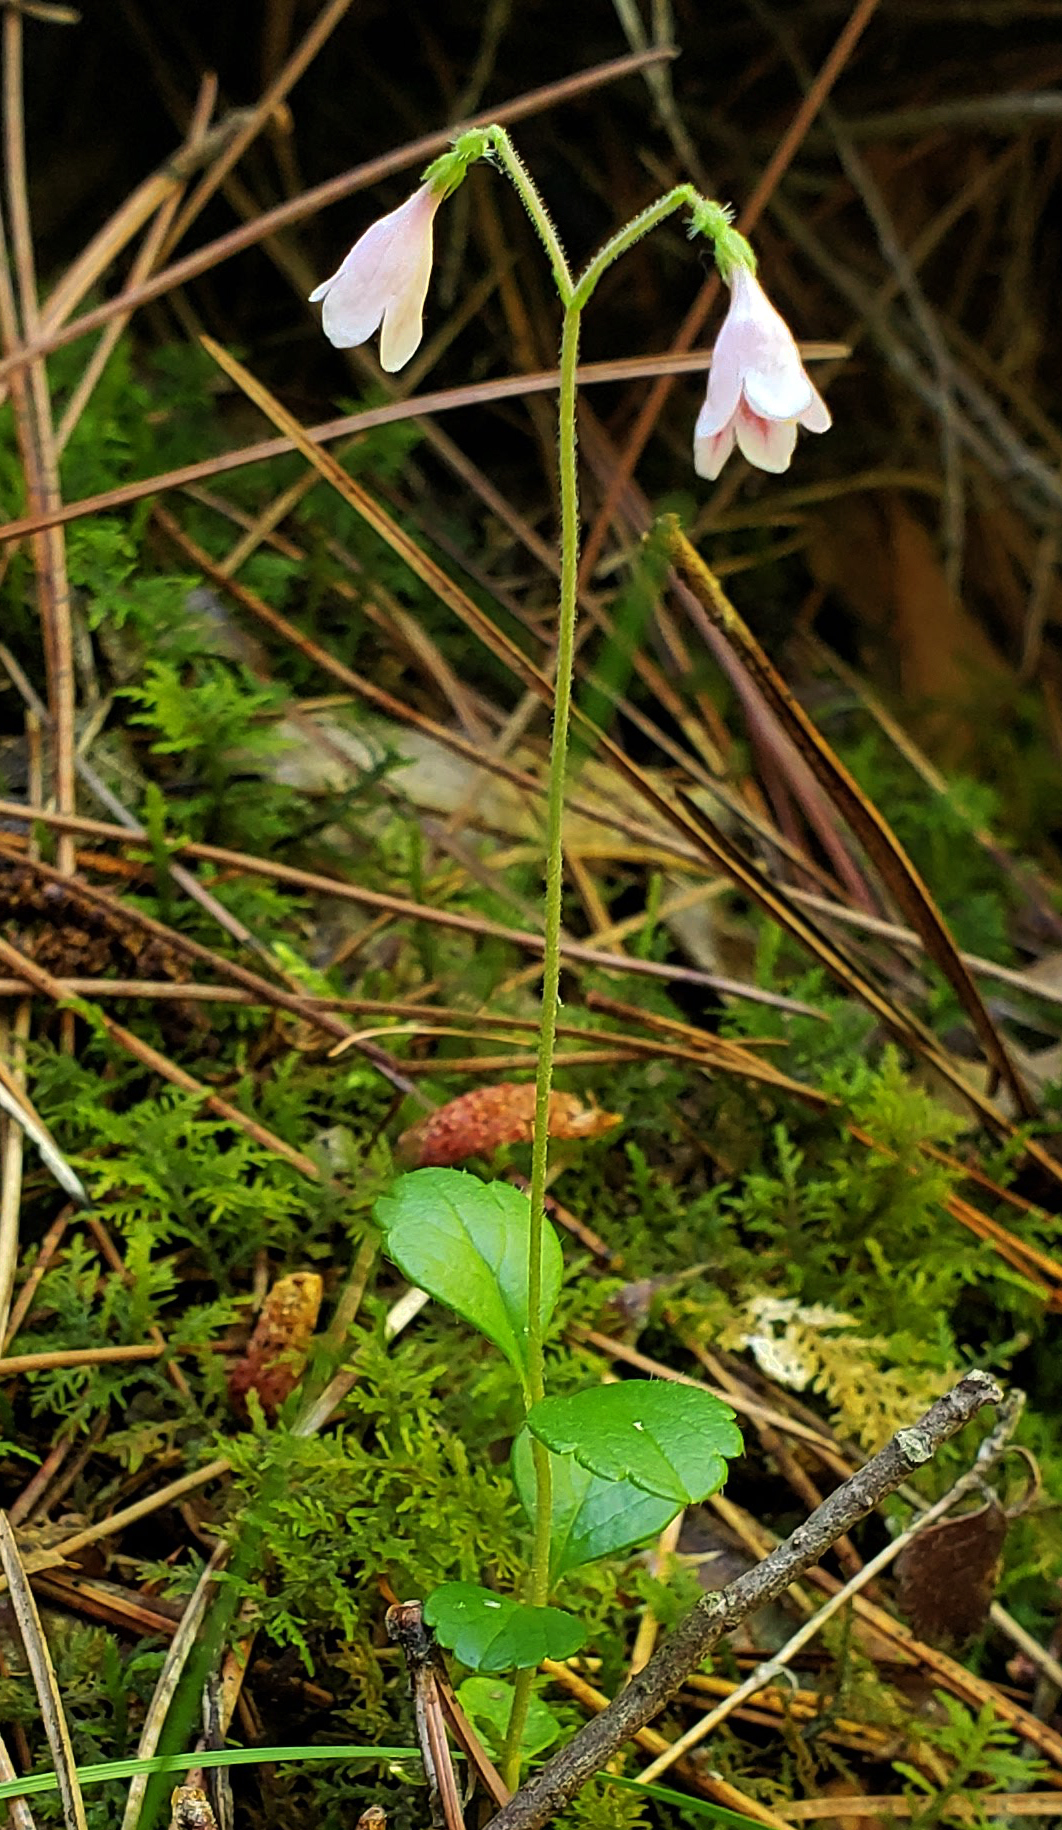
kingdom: Plantae
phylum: Tracheophyta
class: Magnoliopsida
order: Dipsacales
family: Caprifoliaceae
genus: Linnaea
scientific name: Linnaea borealis
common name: Twinflower
